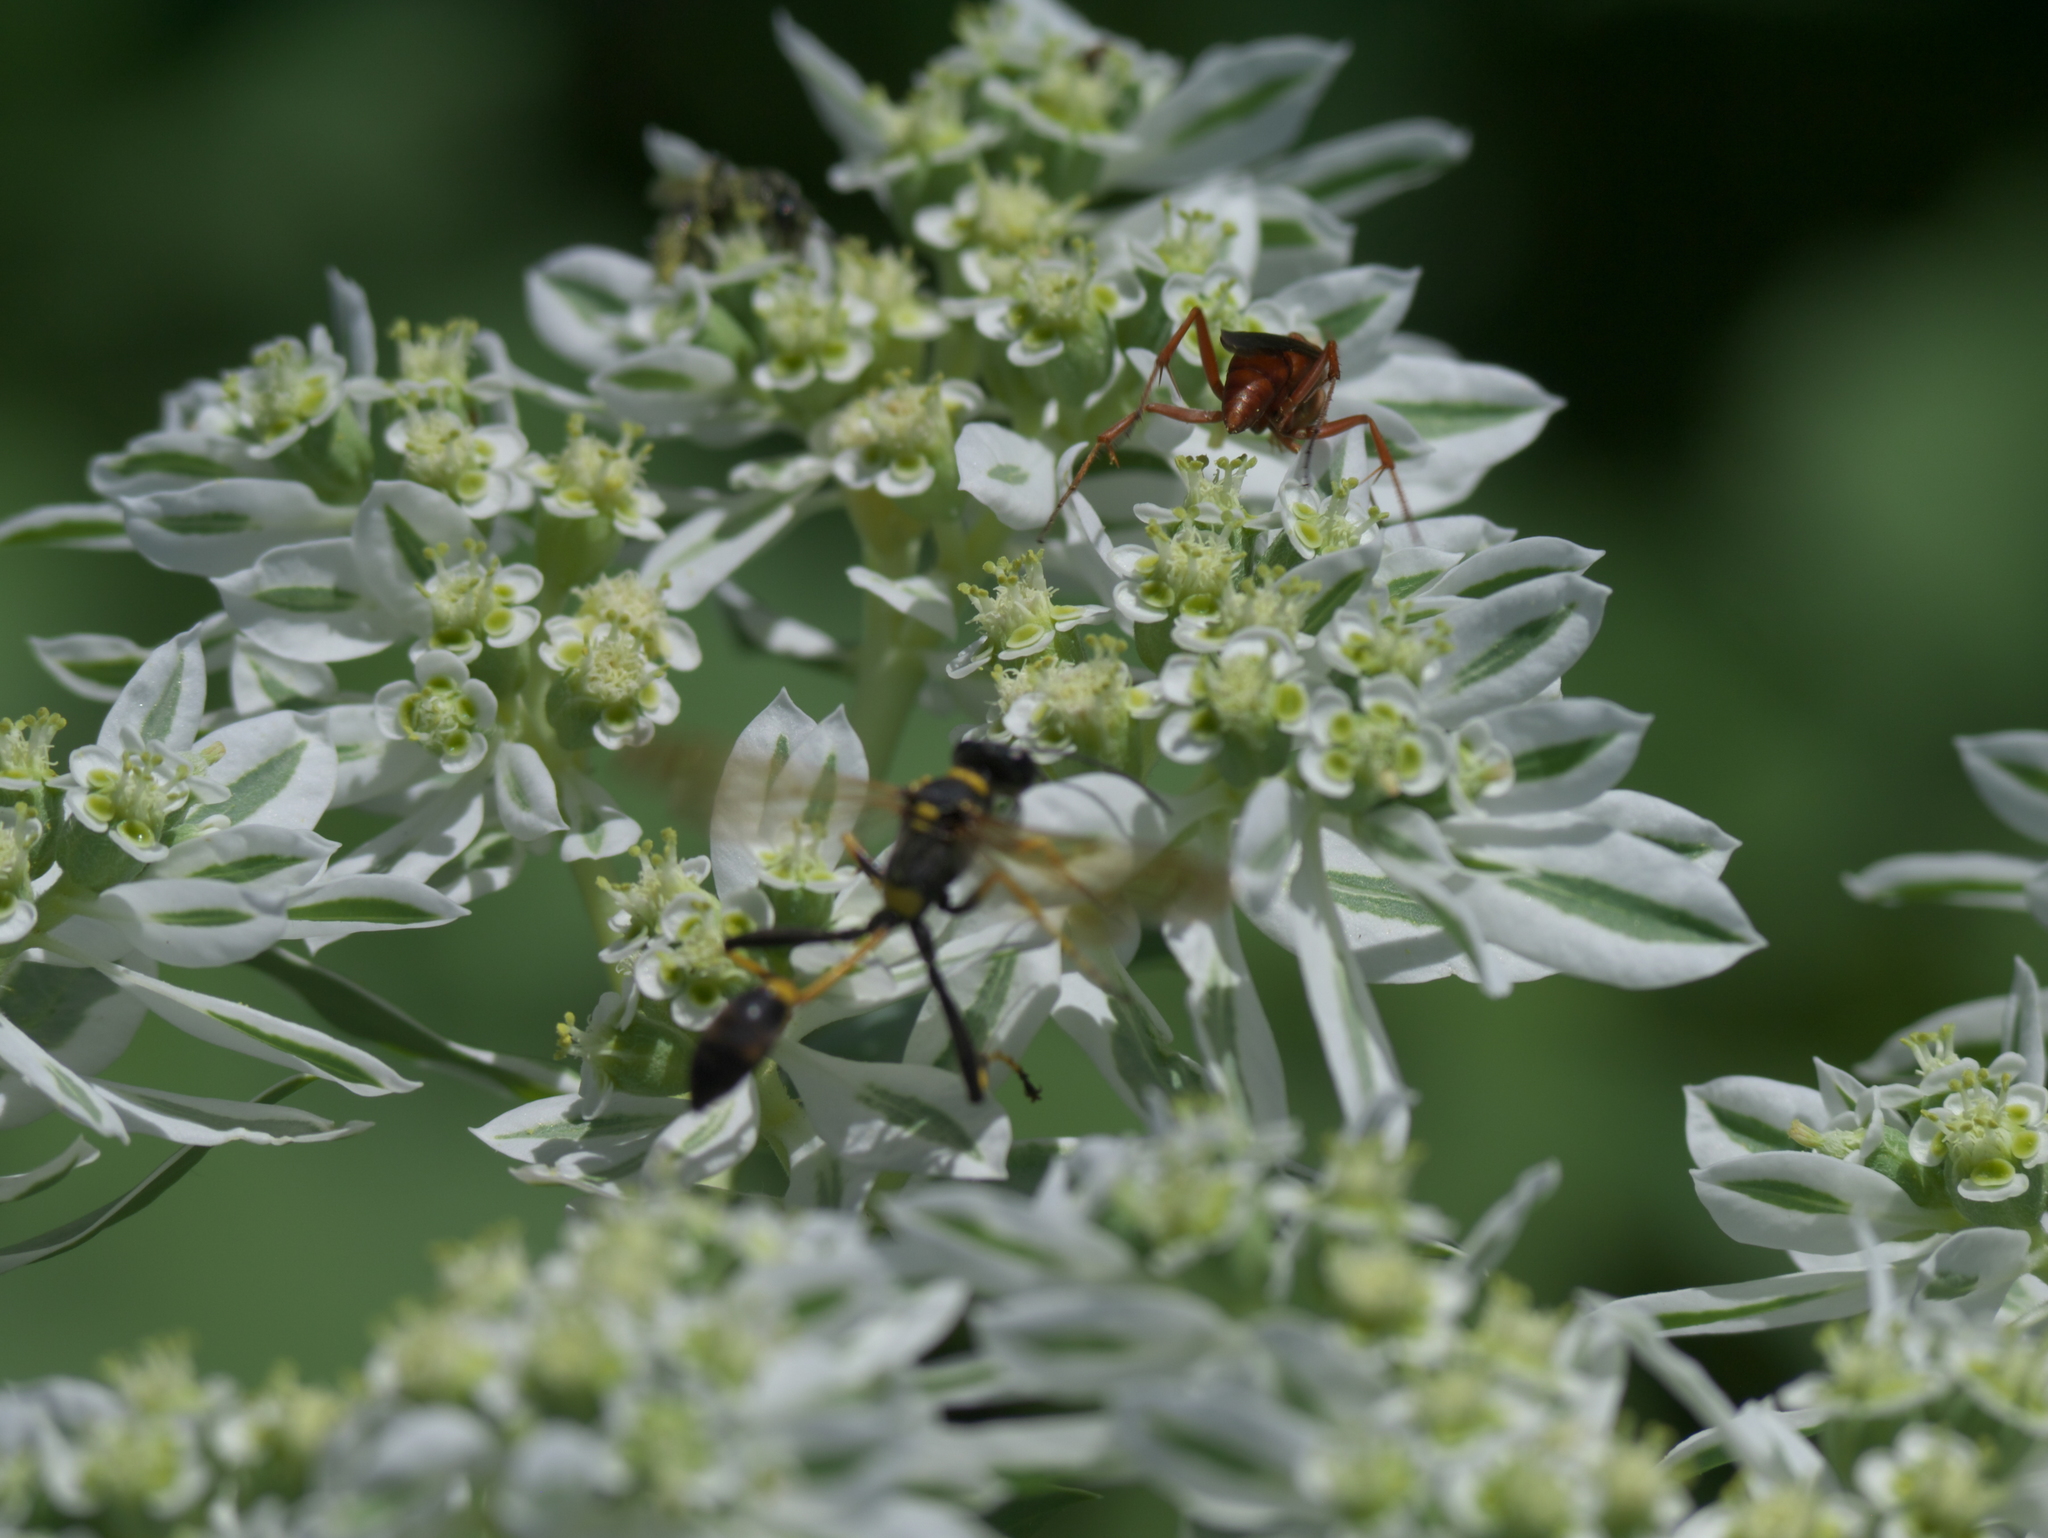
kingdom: Animalia
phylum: Arthropoda
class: Insecta
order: Hymenoptera
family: Sphecidae
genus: Sceliphron
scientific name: Sceliphron caementarium
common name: Mud dauber
